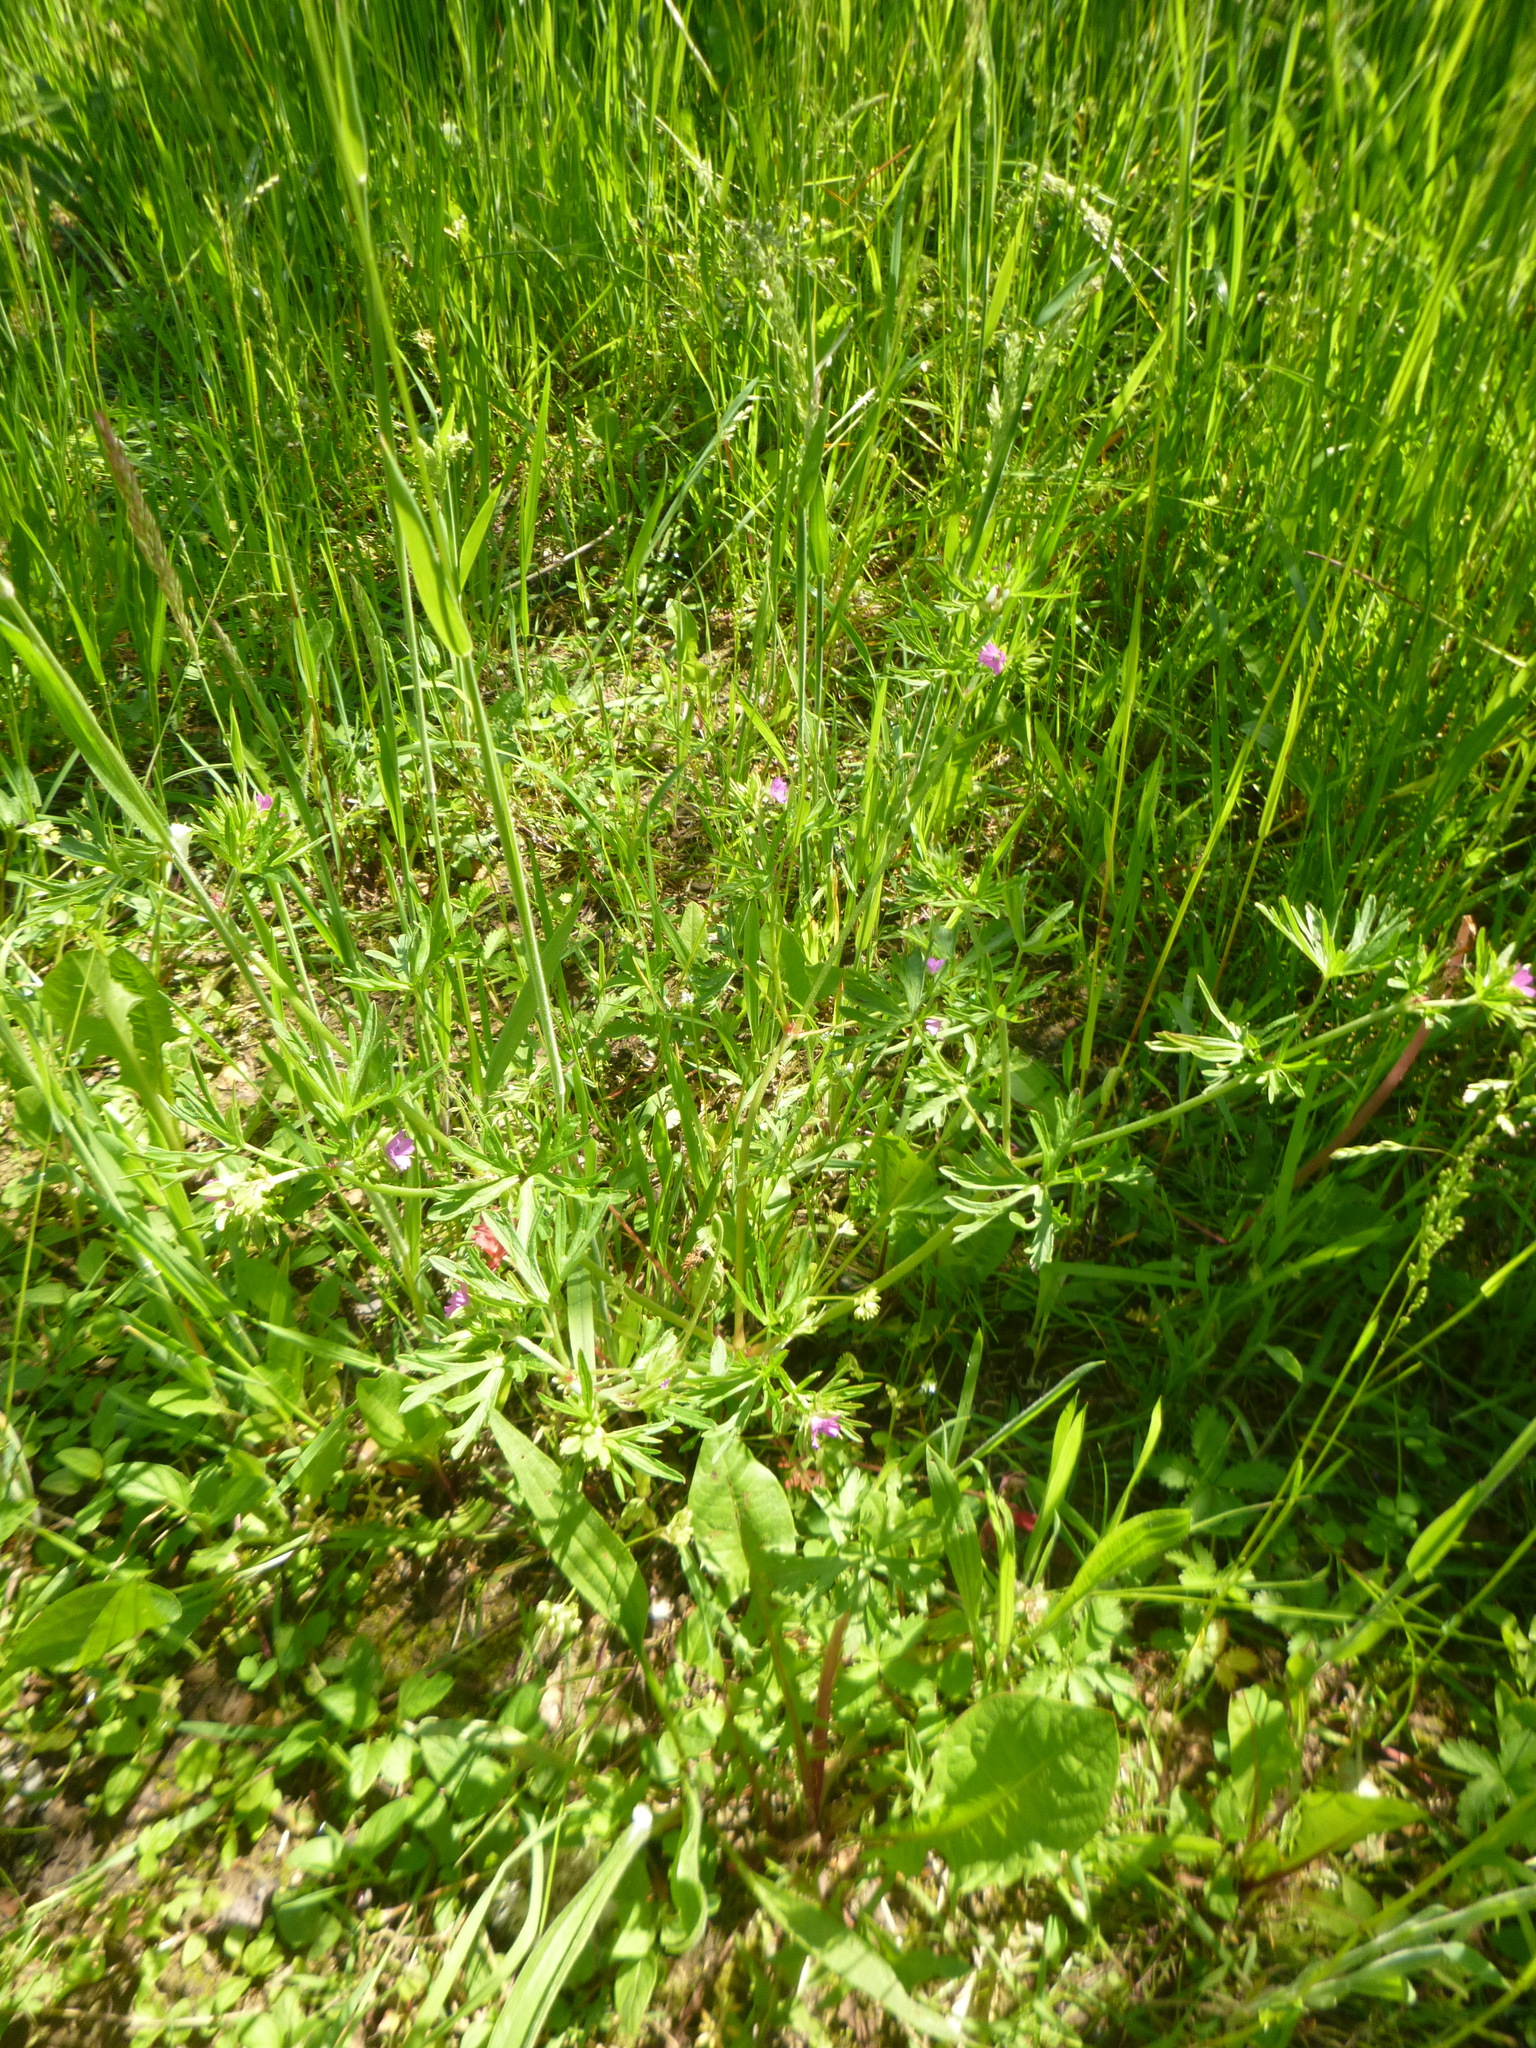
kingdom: Plantae
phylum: Tracheophyta
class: Magnoliopsida
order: Geraniales
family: Geraniaceae
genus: Geranium
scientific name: Geranium dissectum
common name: Cut-leaved crane's-bill
